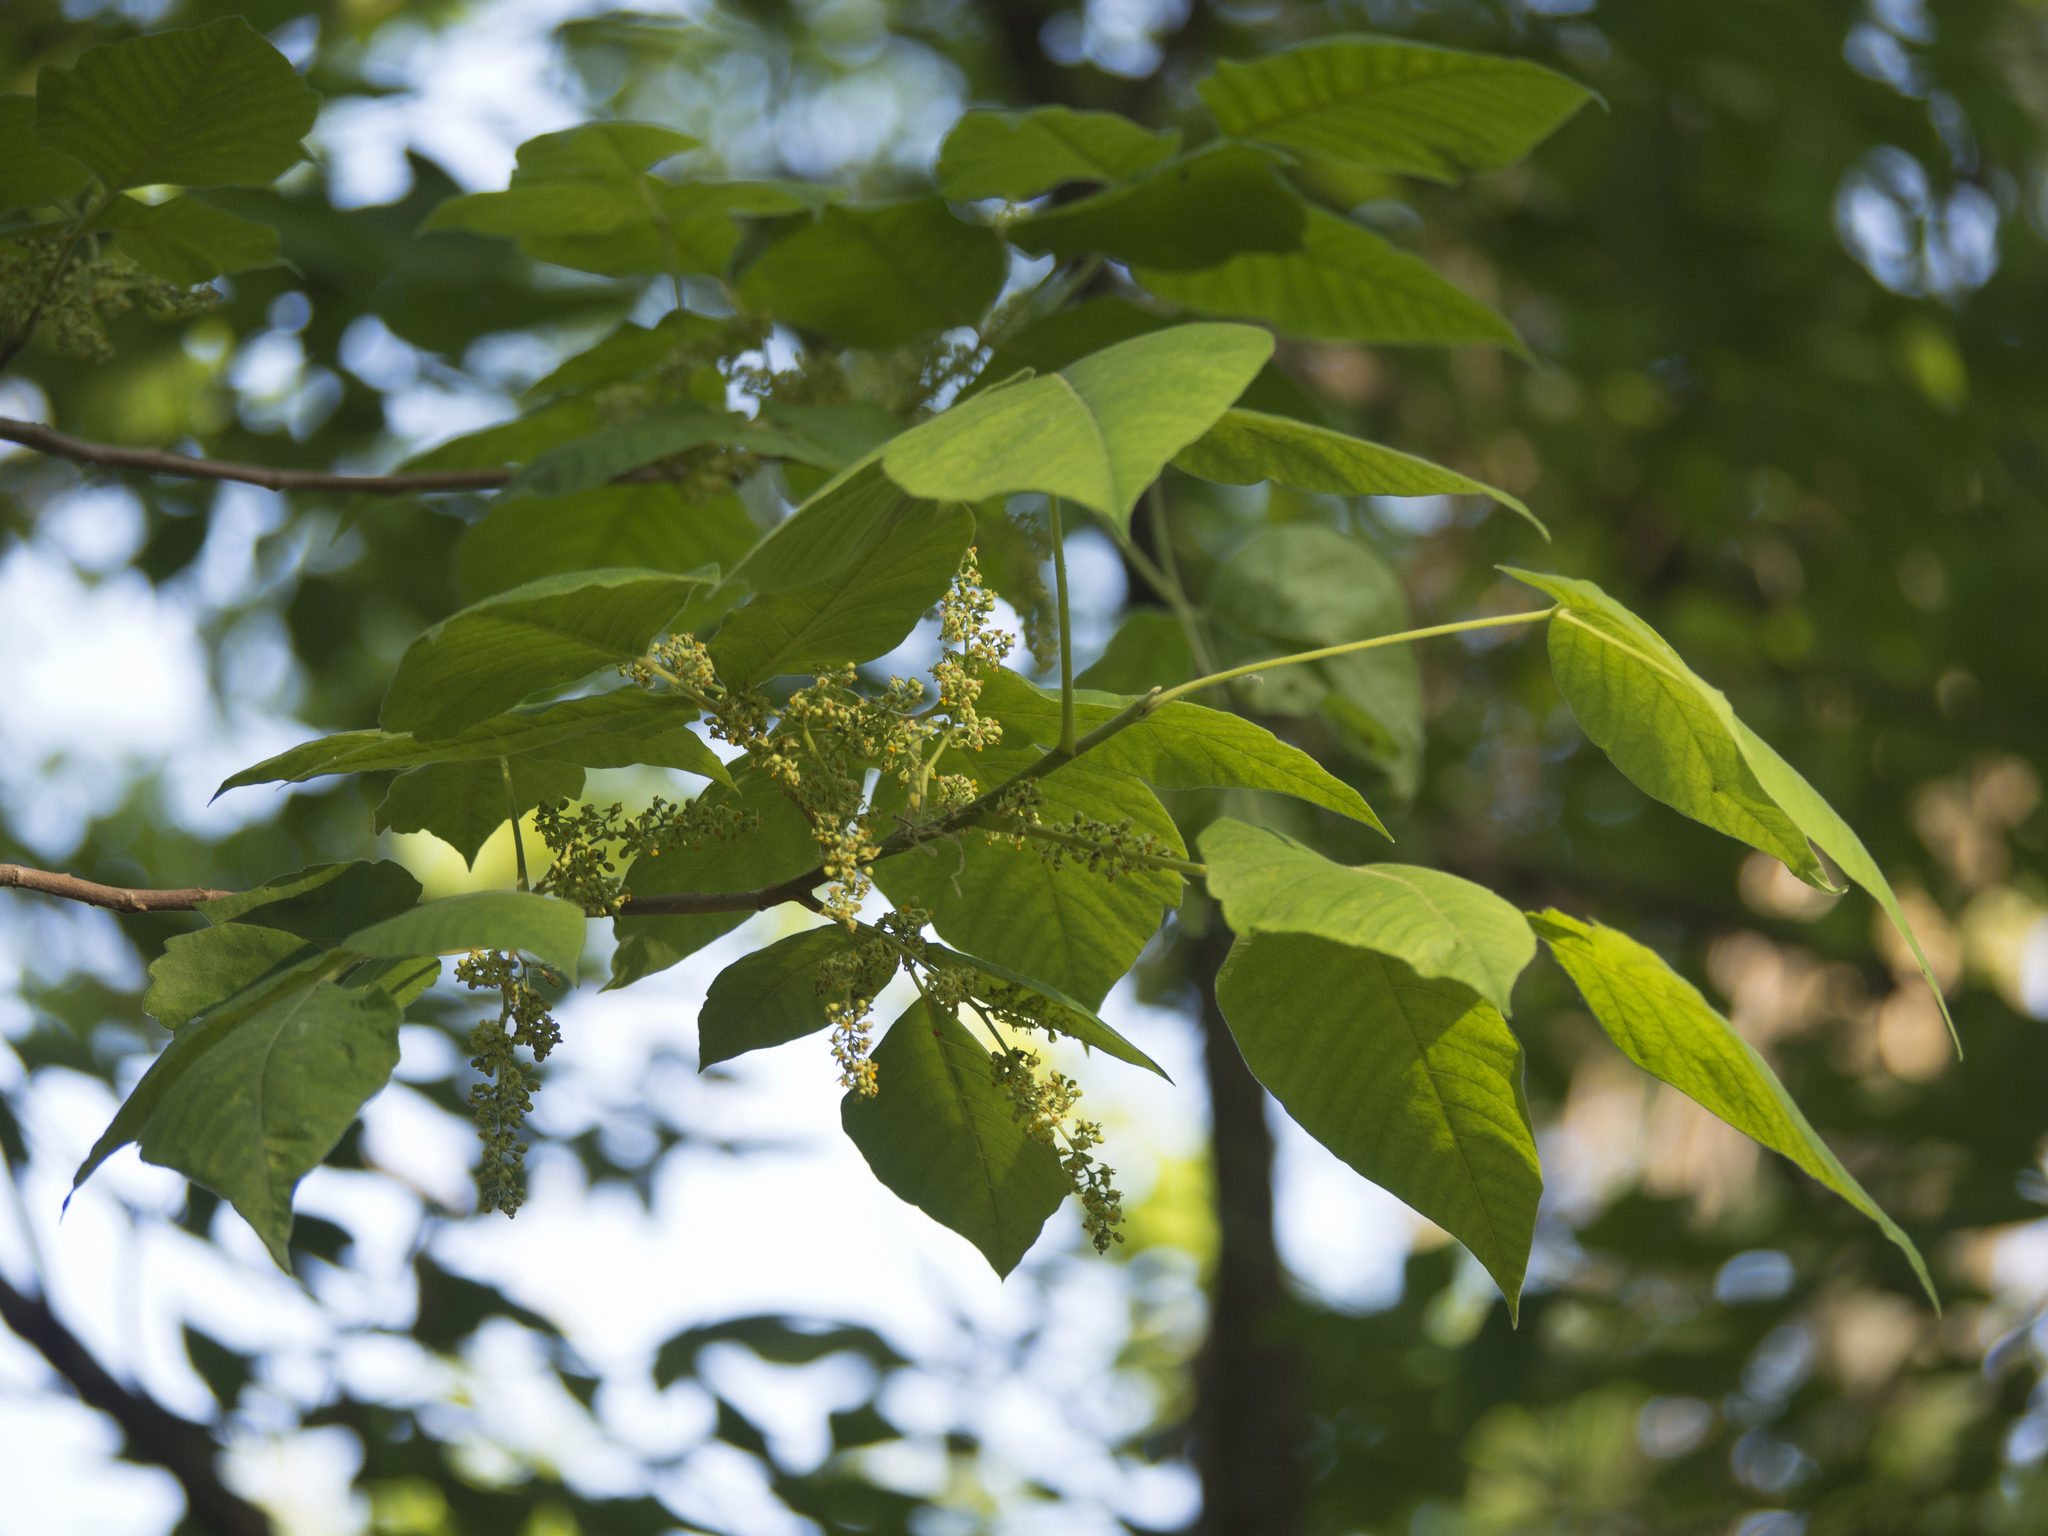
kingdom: Plantae
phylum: Tracheophyta
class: Magnoliopsida
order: Sapindales
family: Anacardiaceae
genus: Toxicodendron
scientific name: Toxicodendron radicans
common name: Poison ivy
